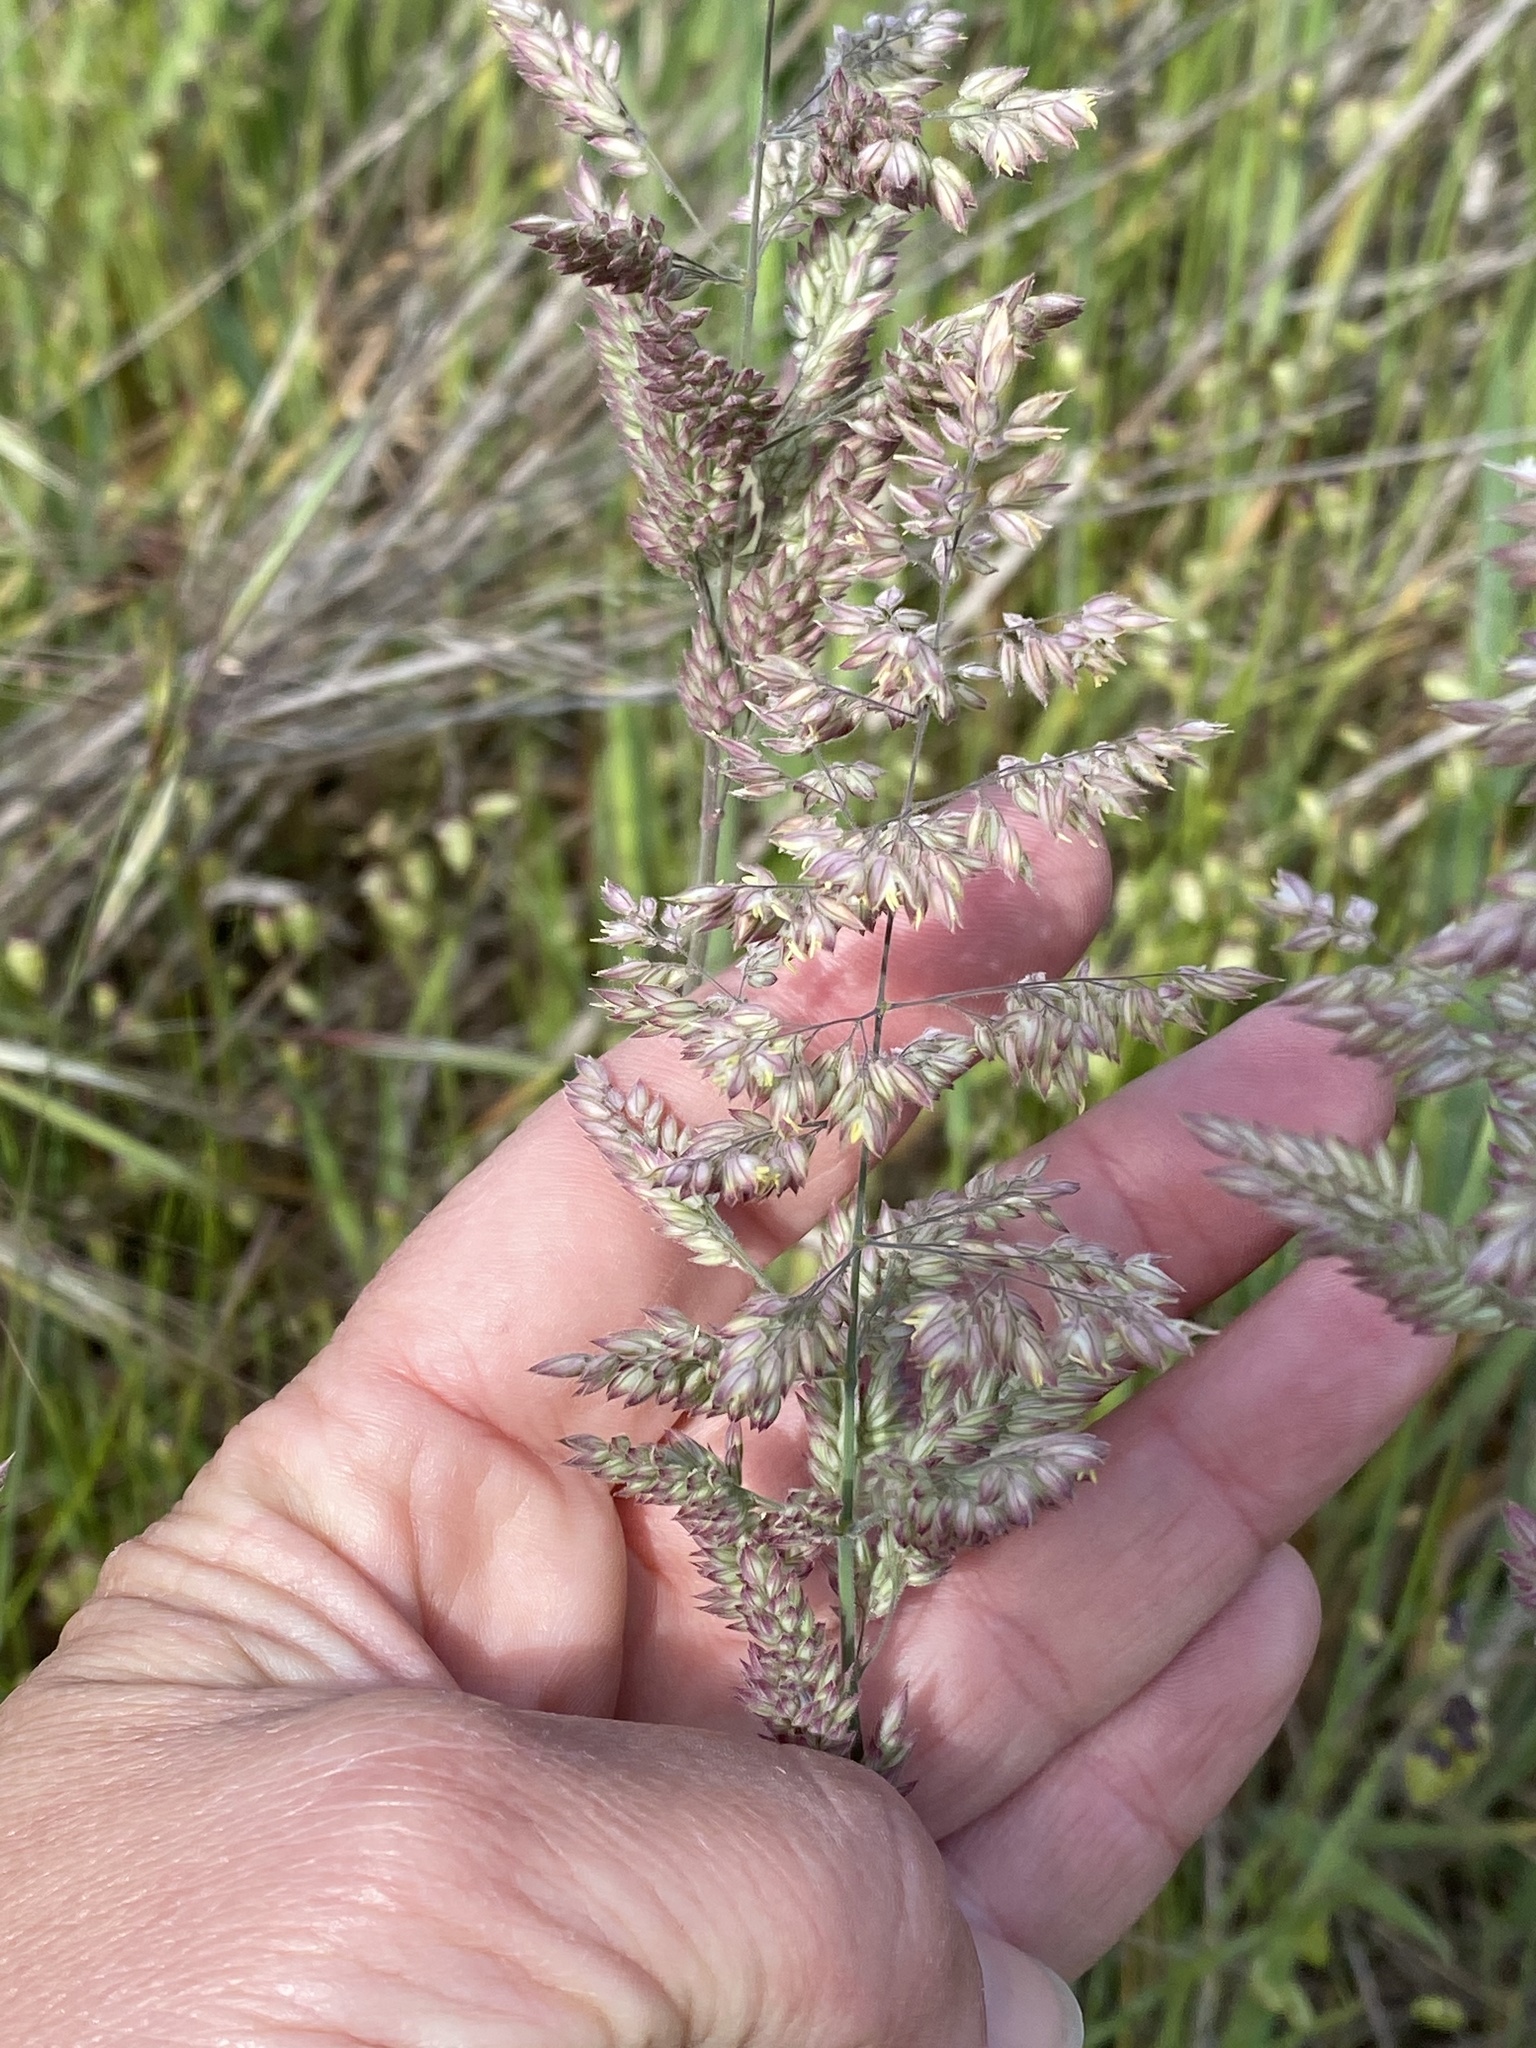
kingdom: Plantae
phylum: Tracheophyta
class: Liliopsida
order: Poales
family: Poaceae
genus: Holcus
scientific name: Holcus lanatus
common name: Yorkshire-fog
